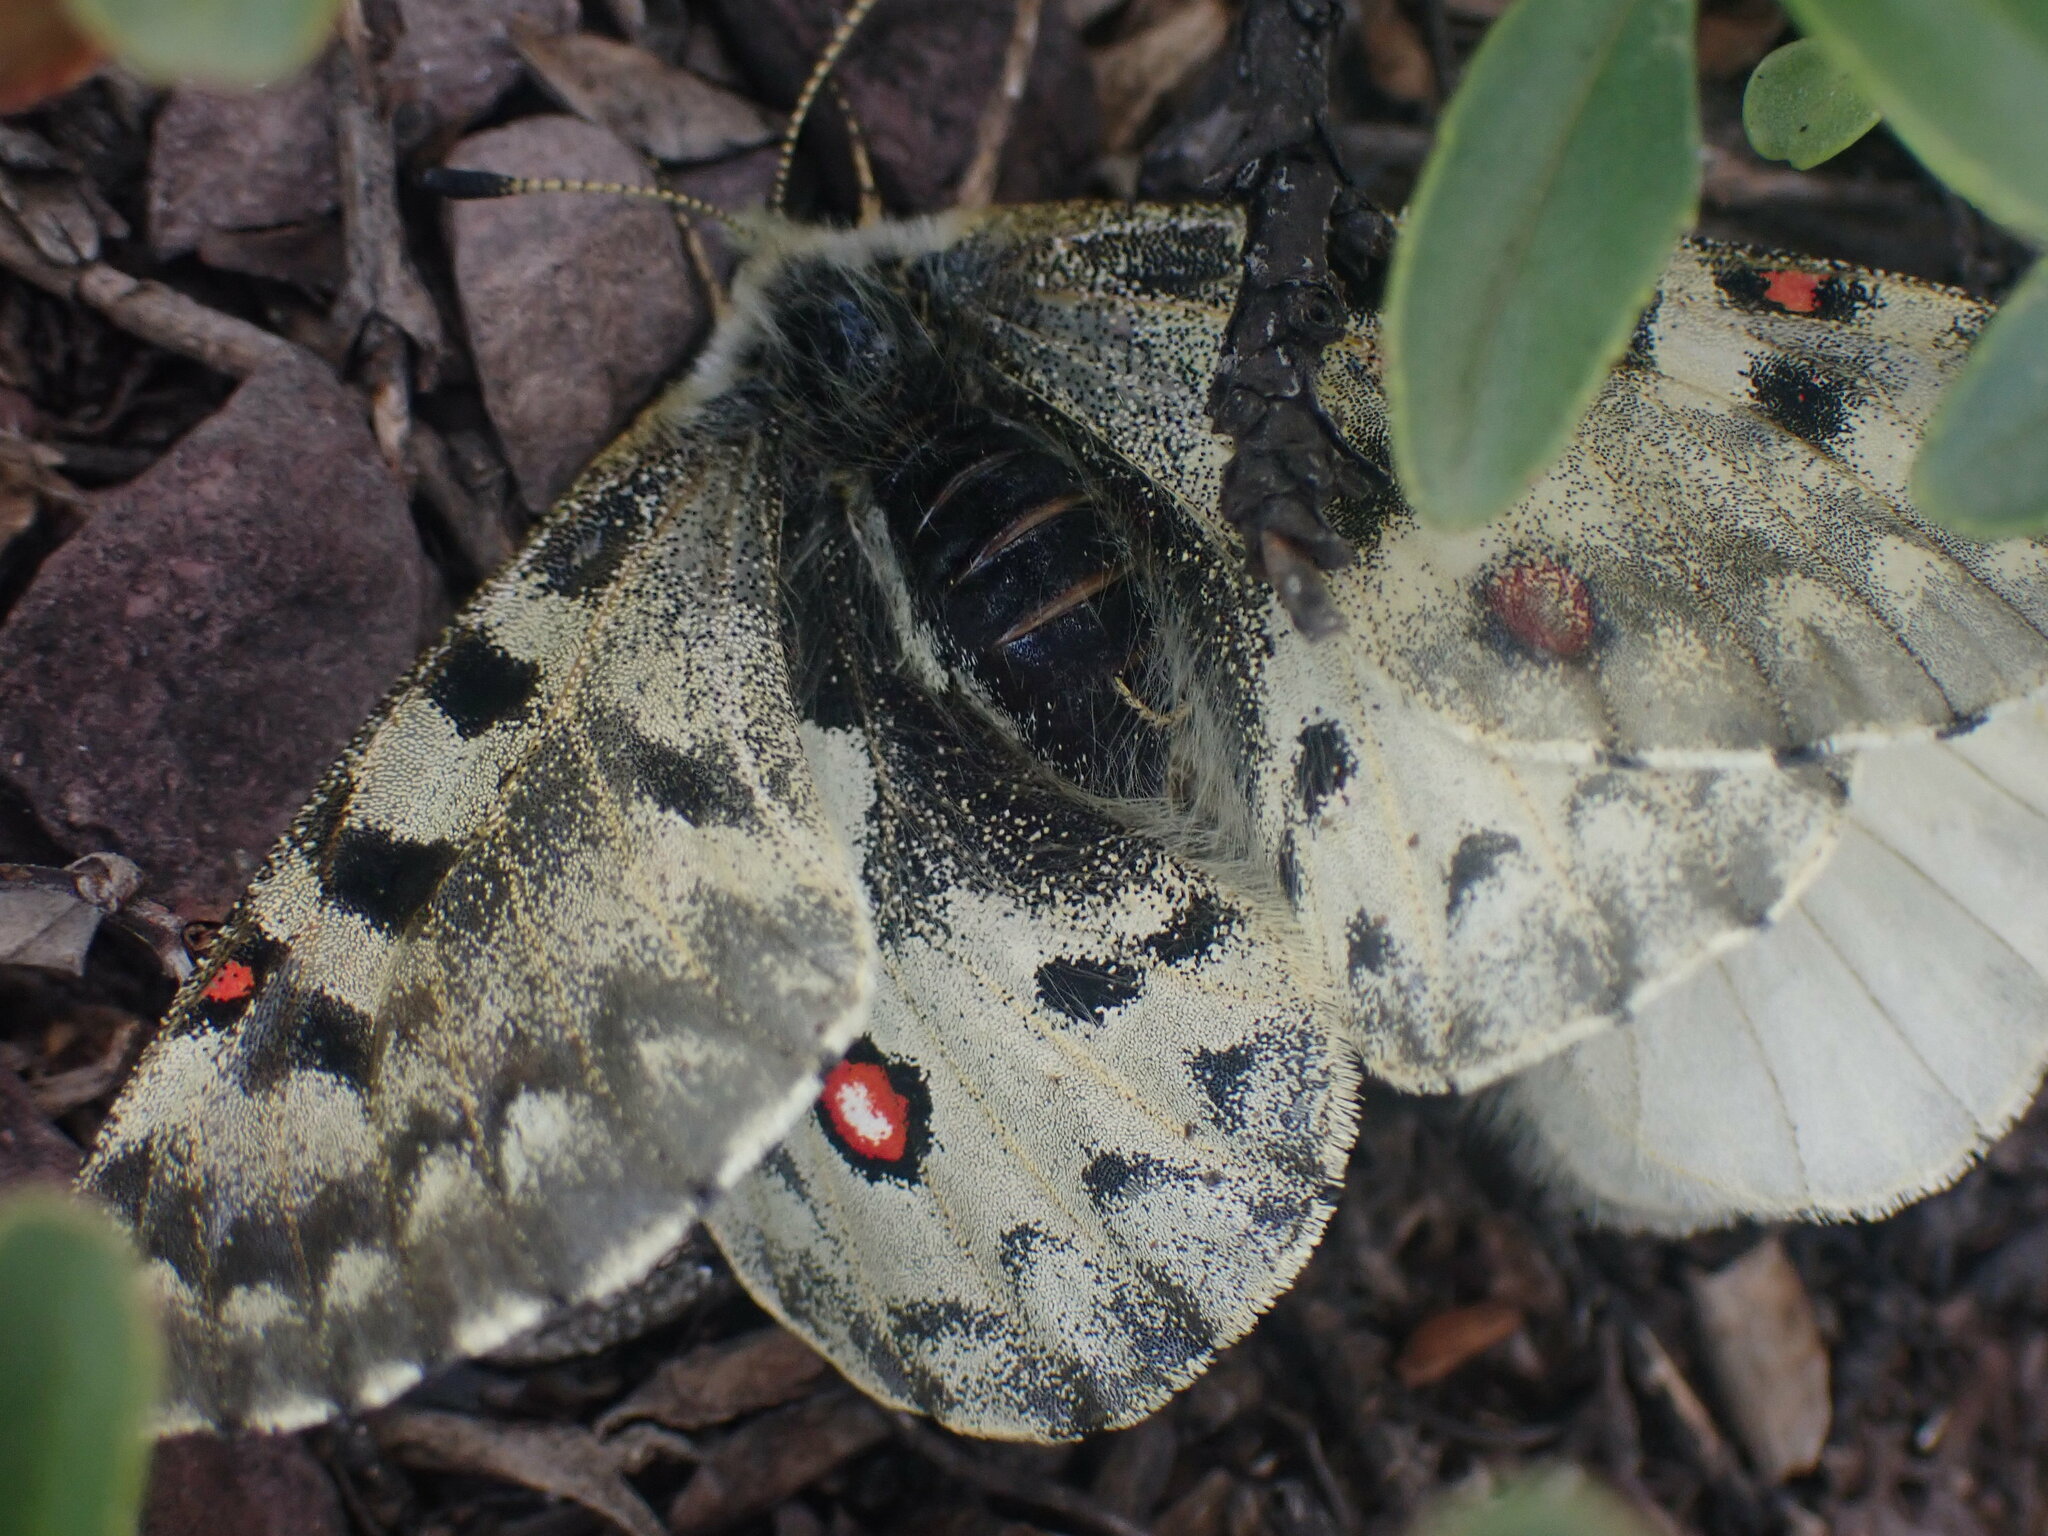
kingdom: Animalia
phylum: Arthropoda
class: Insecta
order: Lepidoptera
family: Papilionidae
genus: Parnassius
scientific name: Parnassius smintheus
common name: Mountain parnassian
